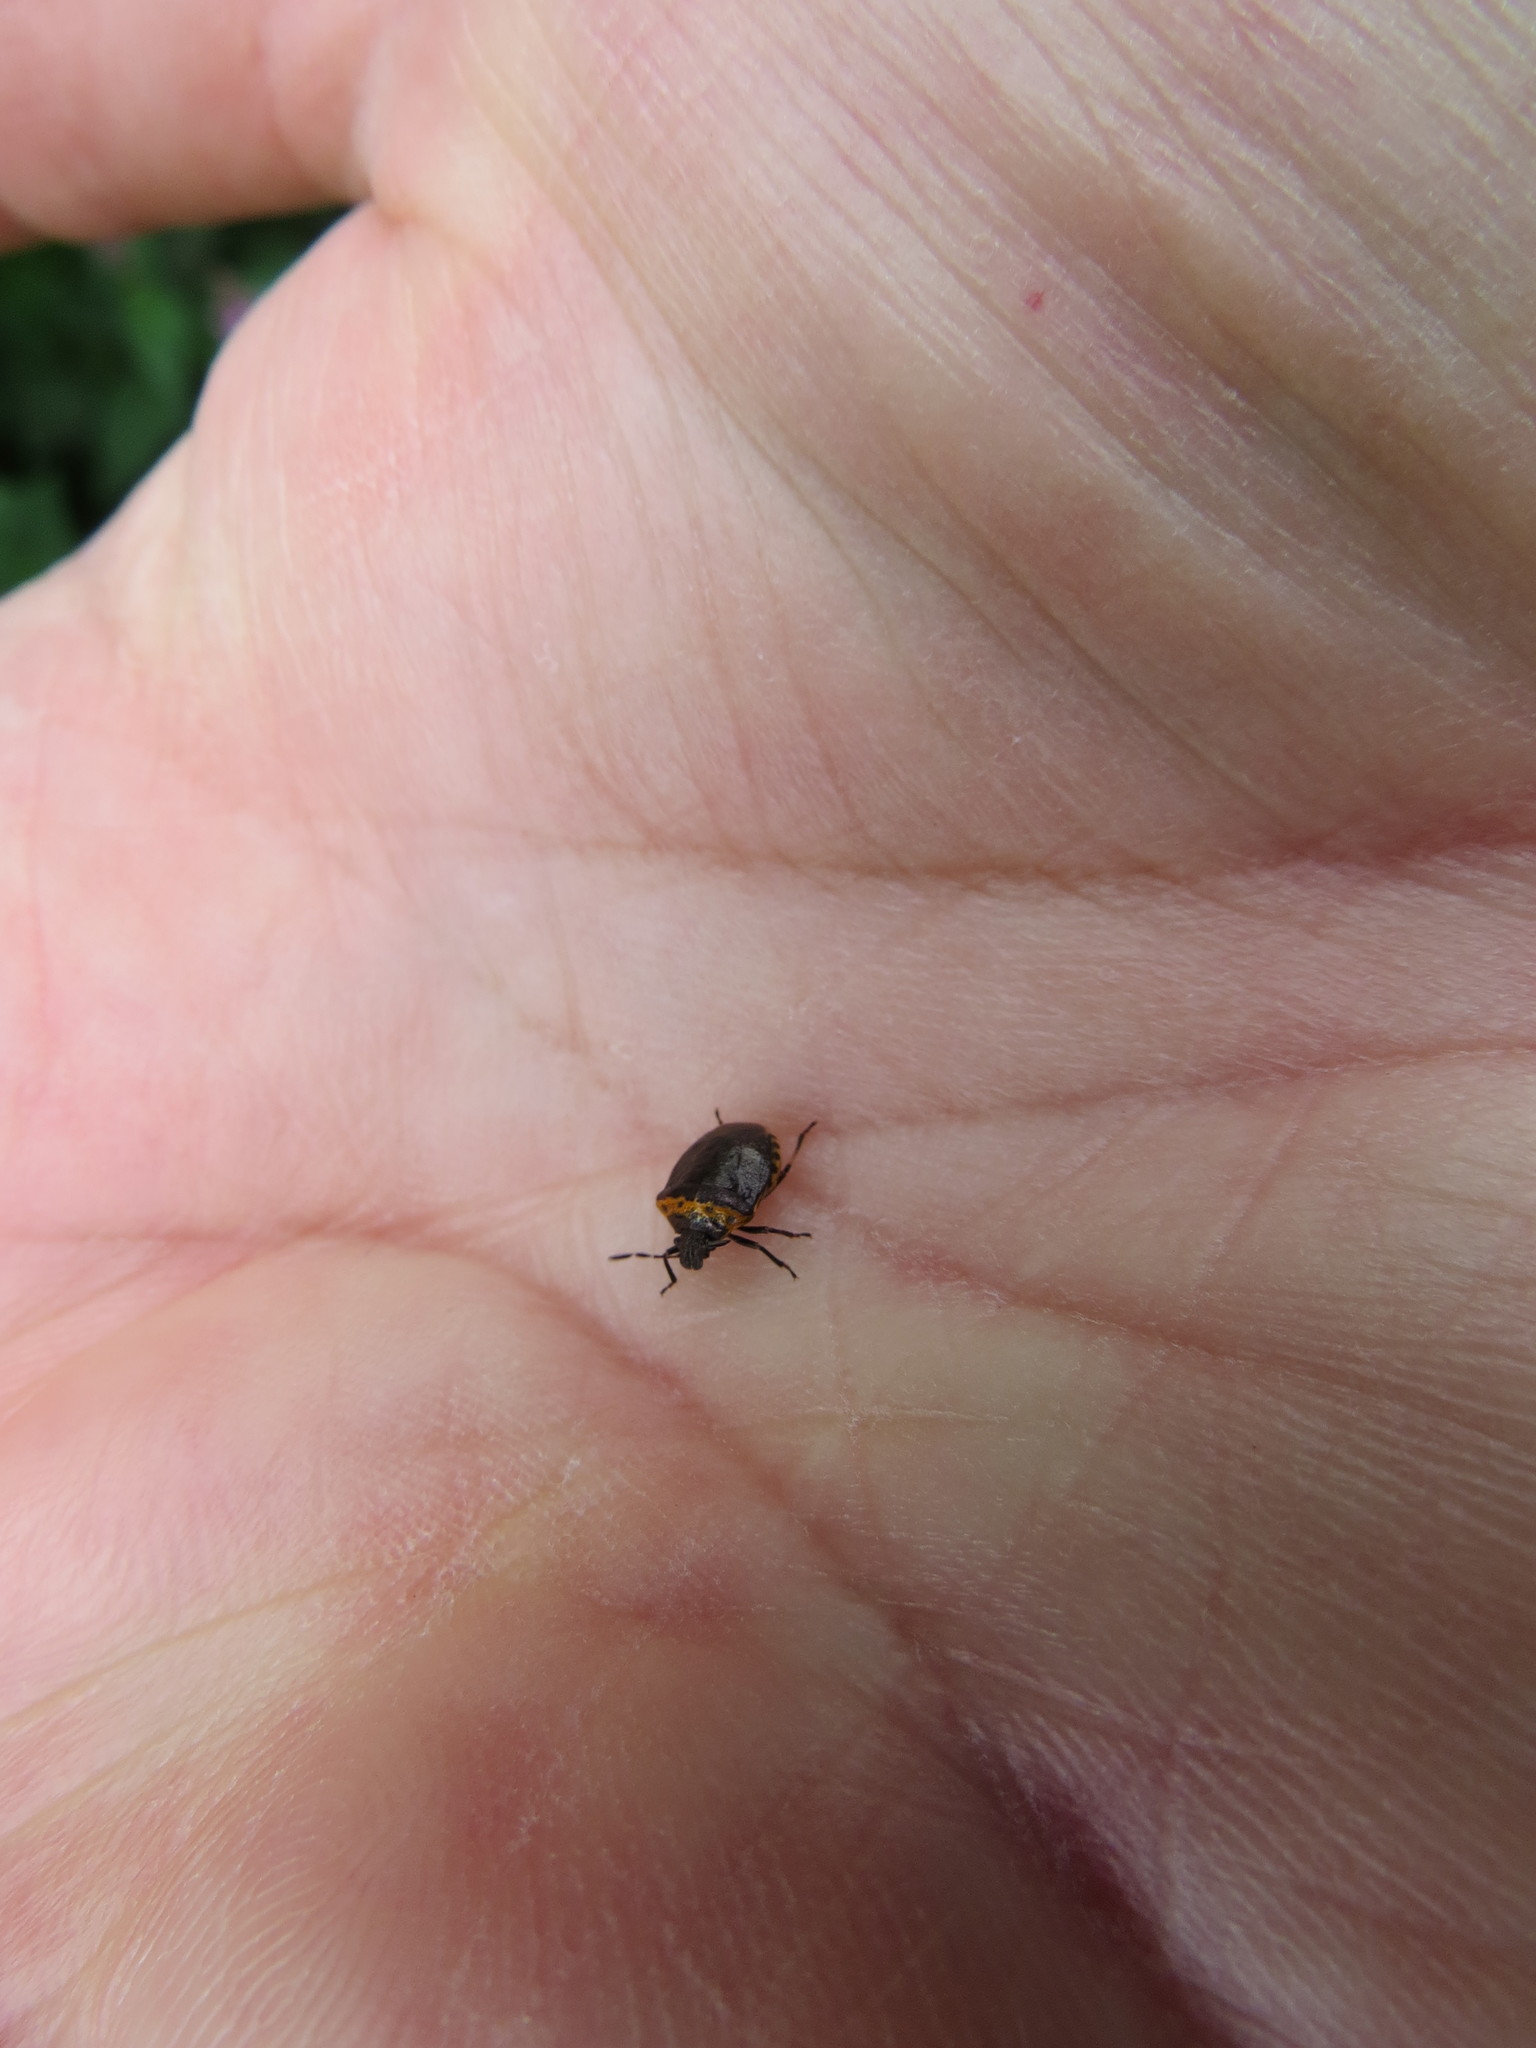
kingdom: Animalia
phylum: Arthropoda
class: Insecta
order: Hemiptera
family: Pentatomidae
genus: Cosmopepla
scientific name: Cosmopepla uhleri
